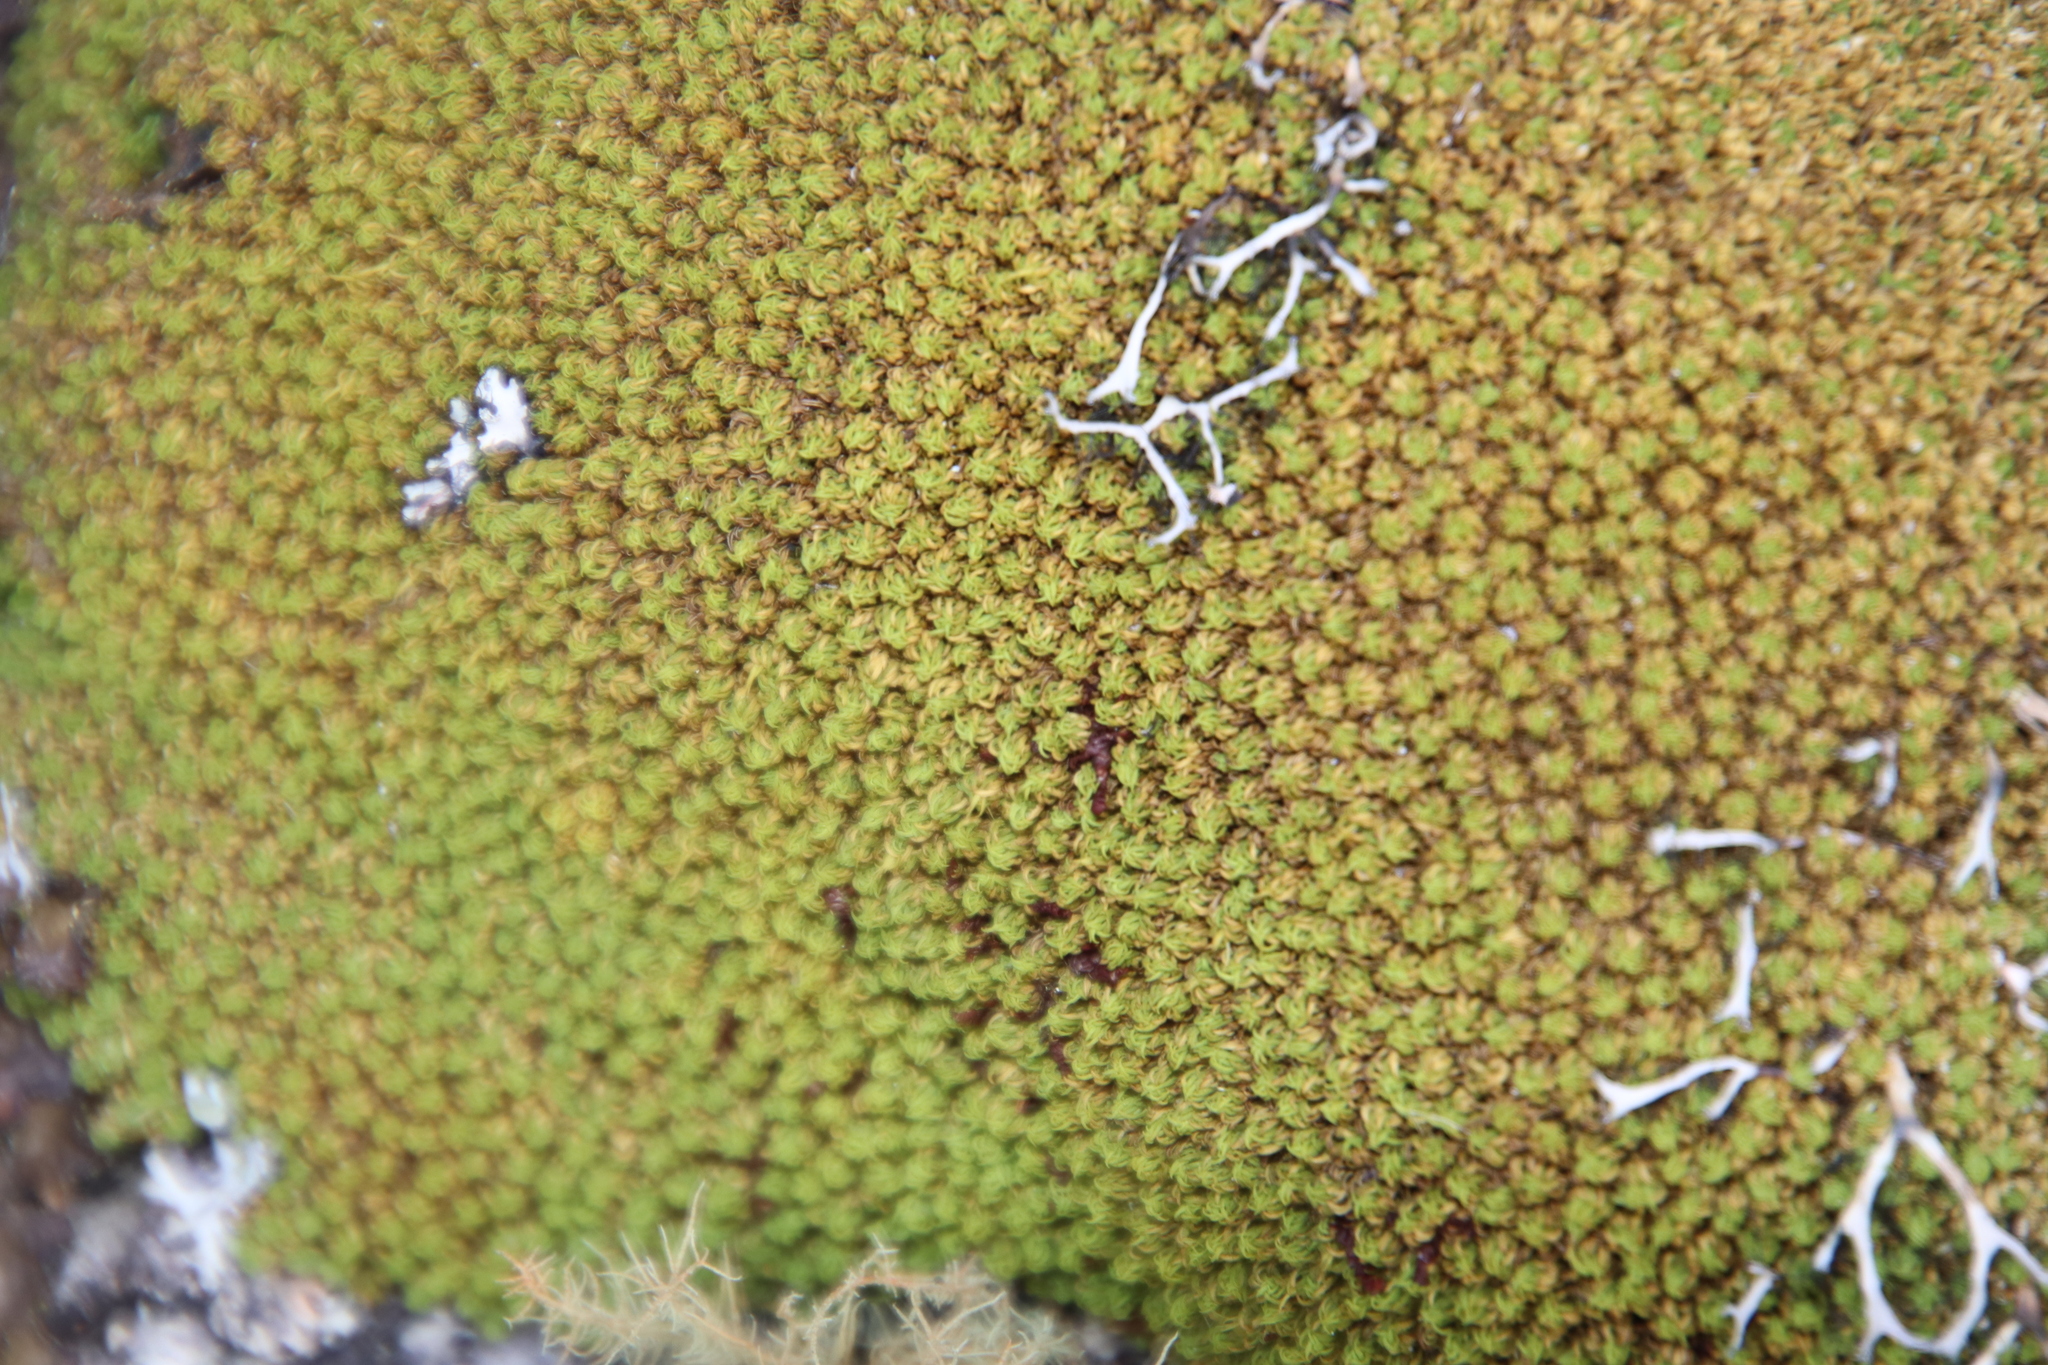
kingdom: Plantae
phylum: Bryophyta
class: Bryopsida
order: Dicranales
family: Hypodontiaceae
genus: Hypodontium
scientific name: Hypodontium pomiforme
